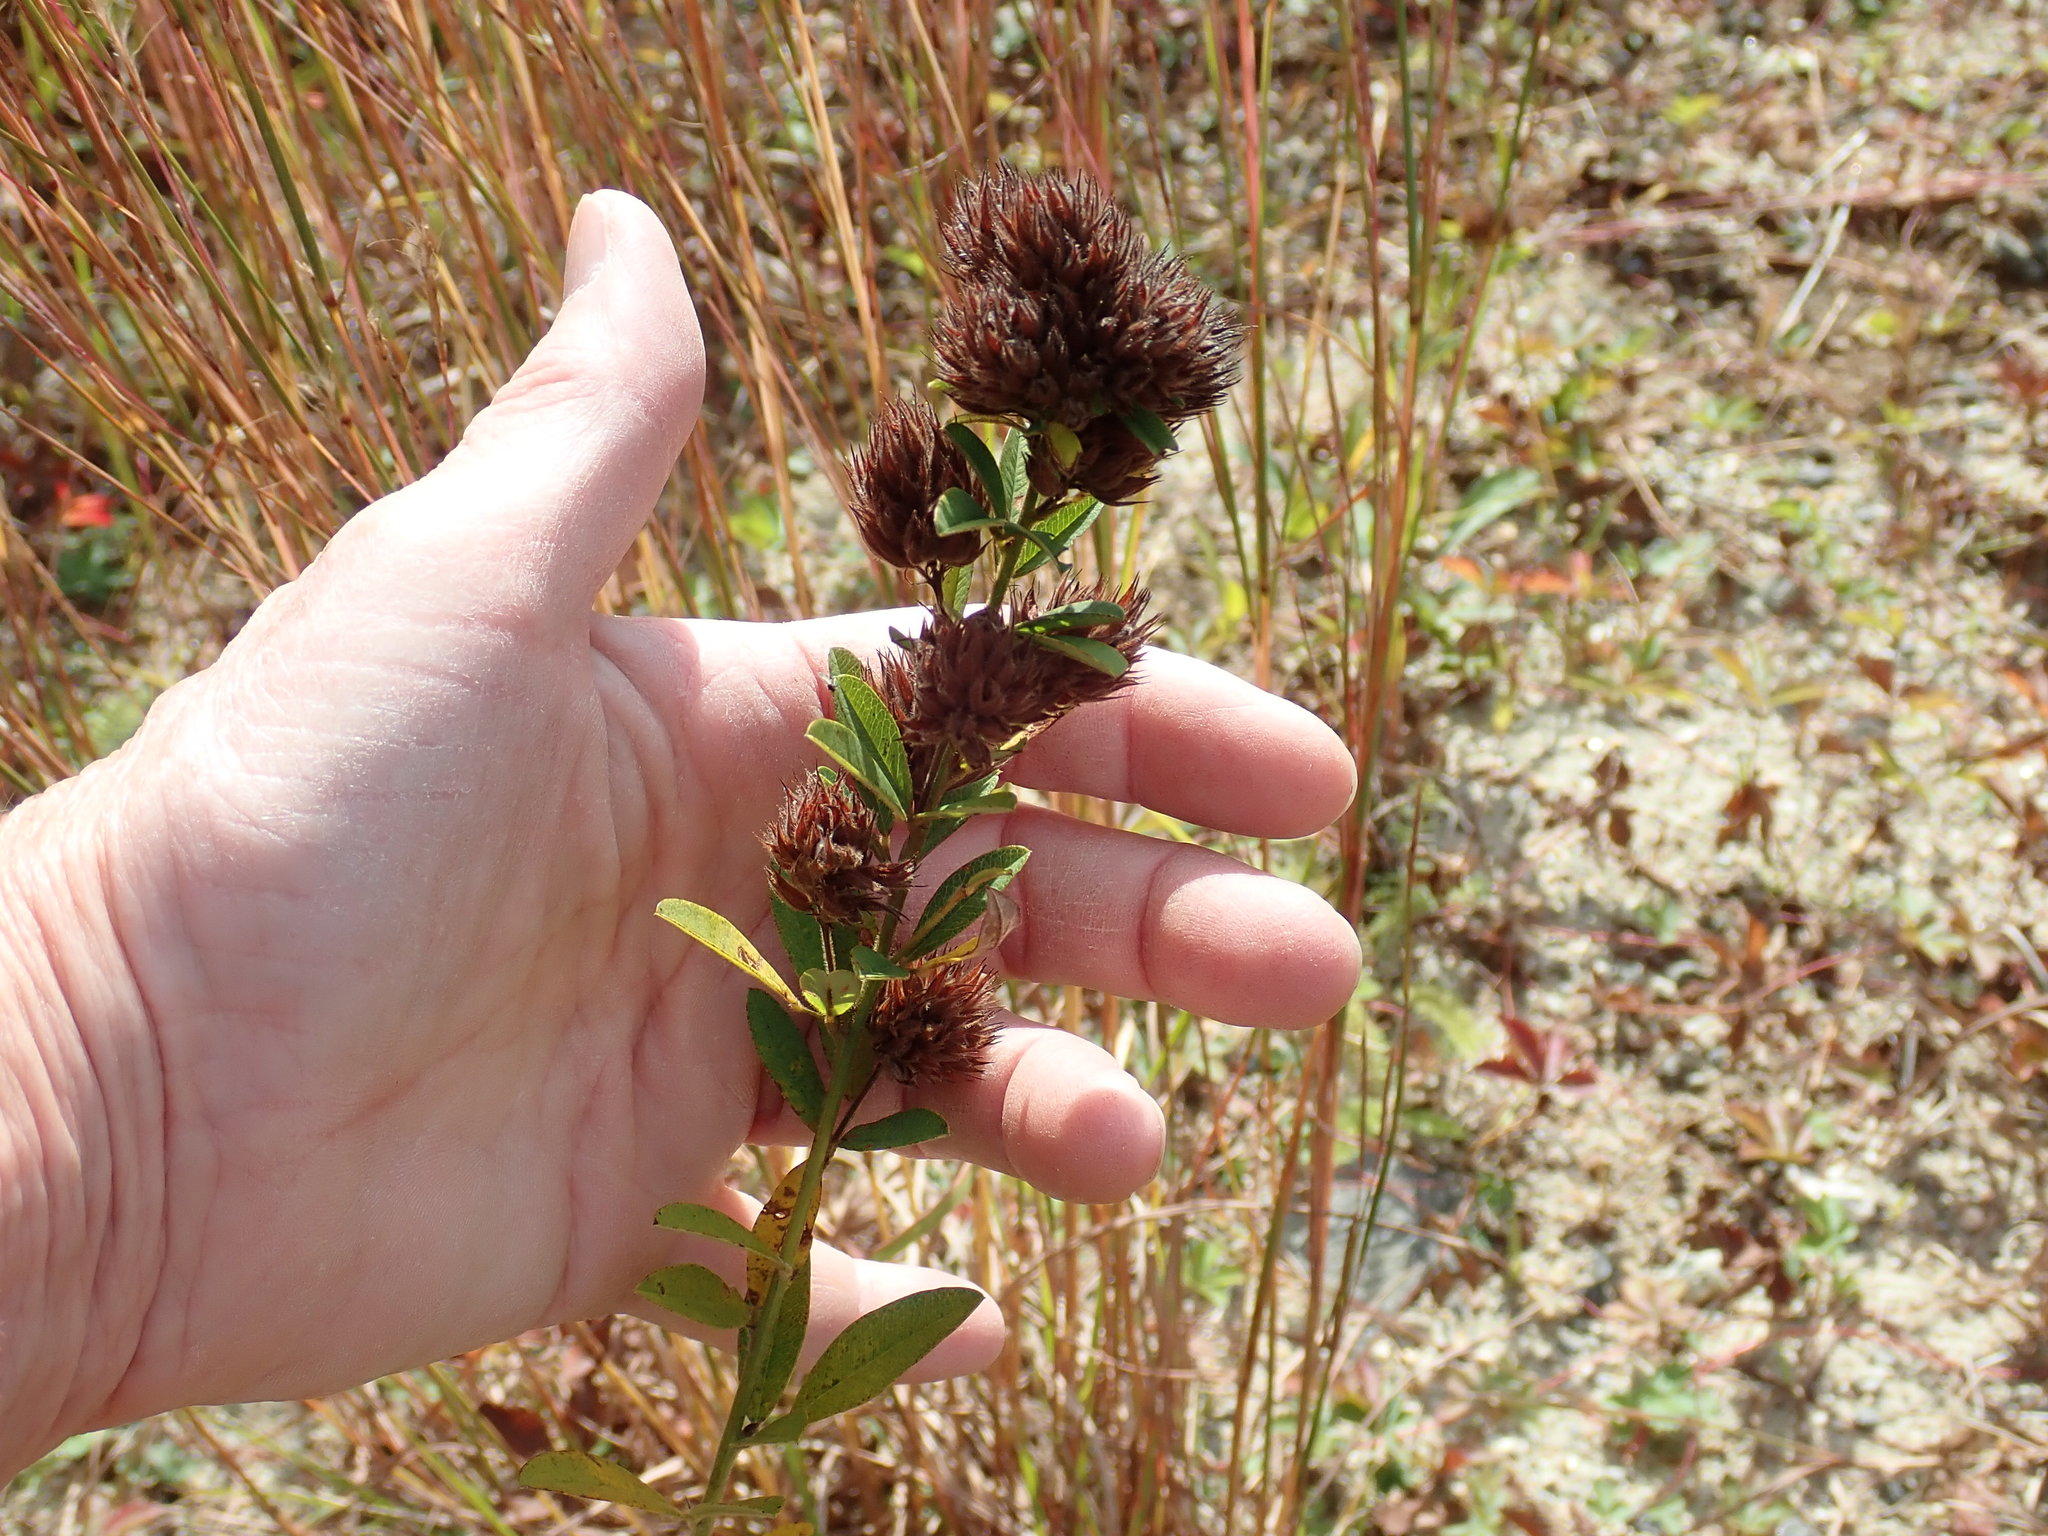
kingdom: Plantae
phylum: Tracheophyta
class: Magnoliopsida
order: Fabales
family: Fabaceae
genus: Lespedeza
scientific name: Lespedeza capitata
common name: Dusty clover
